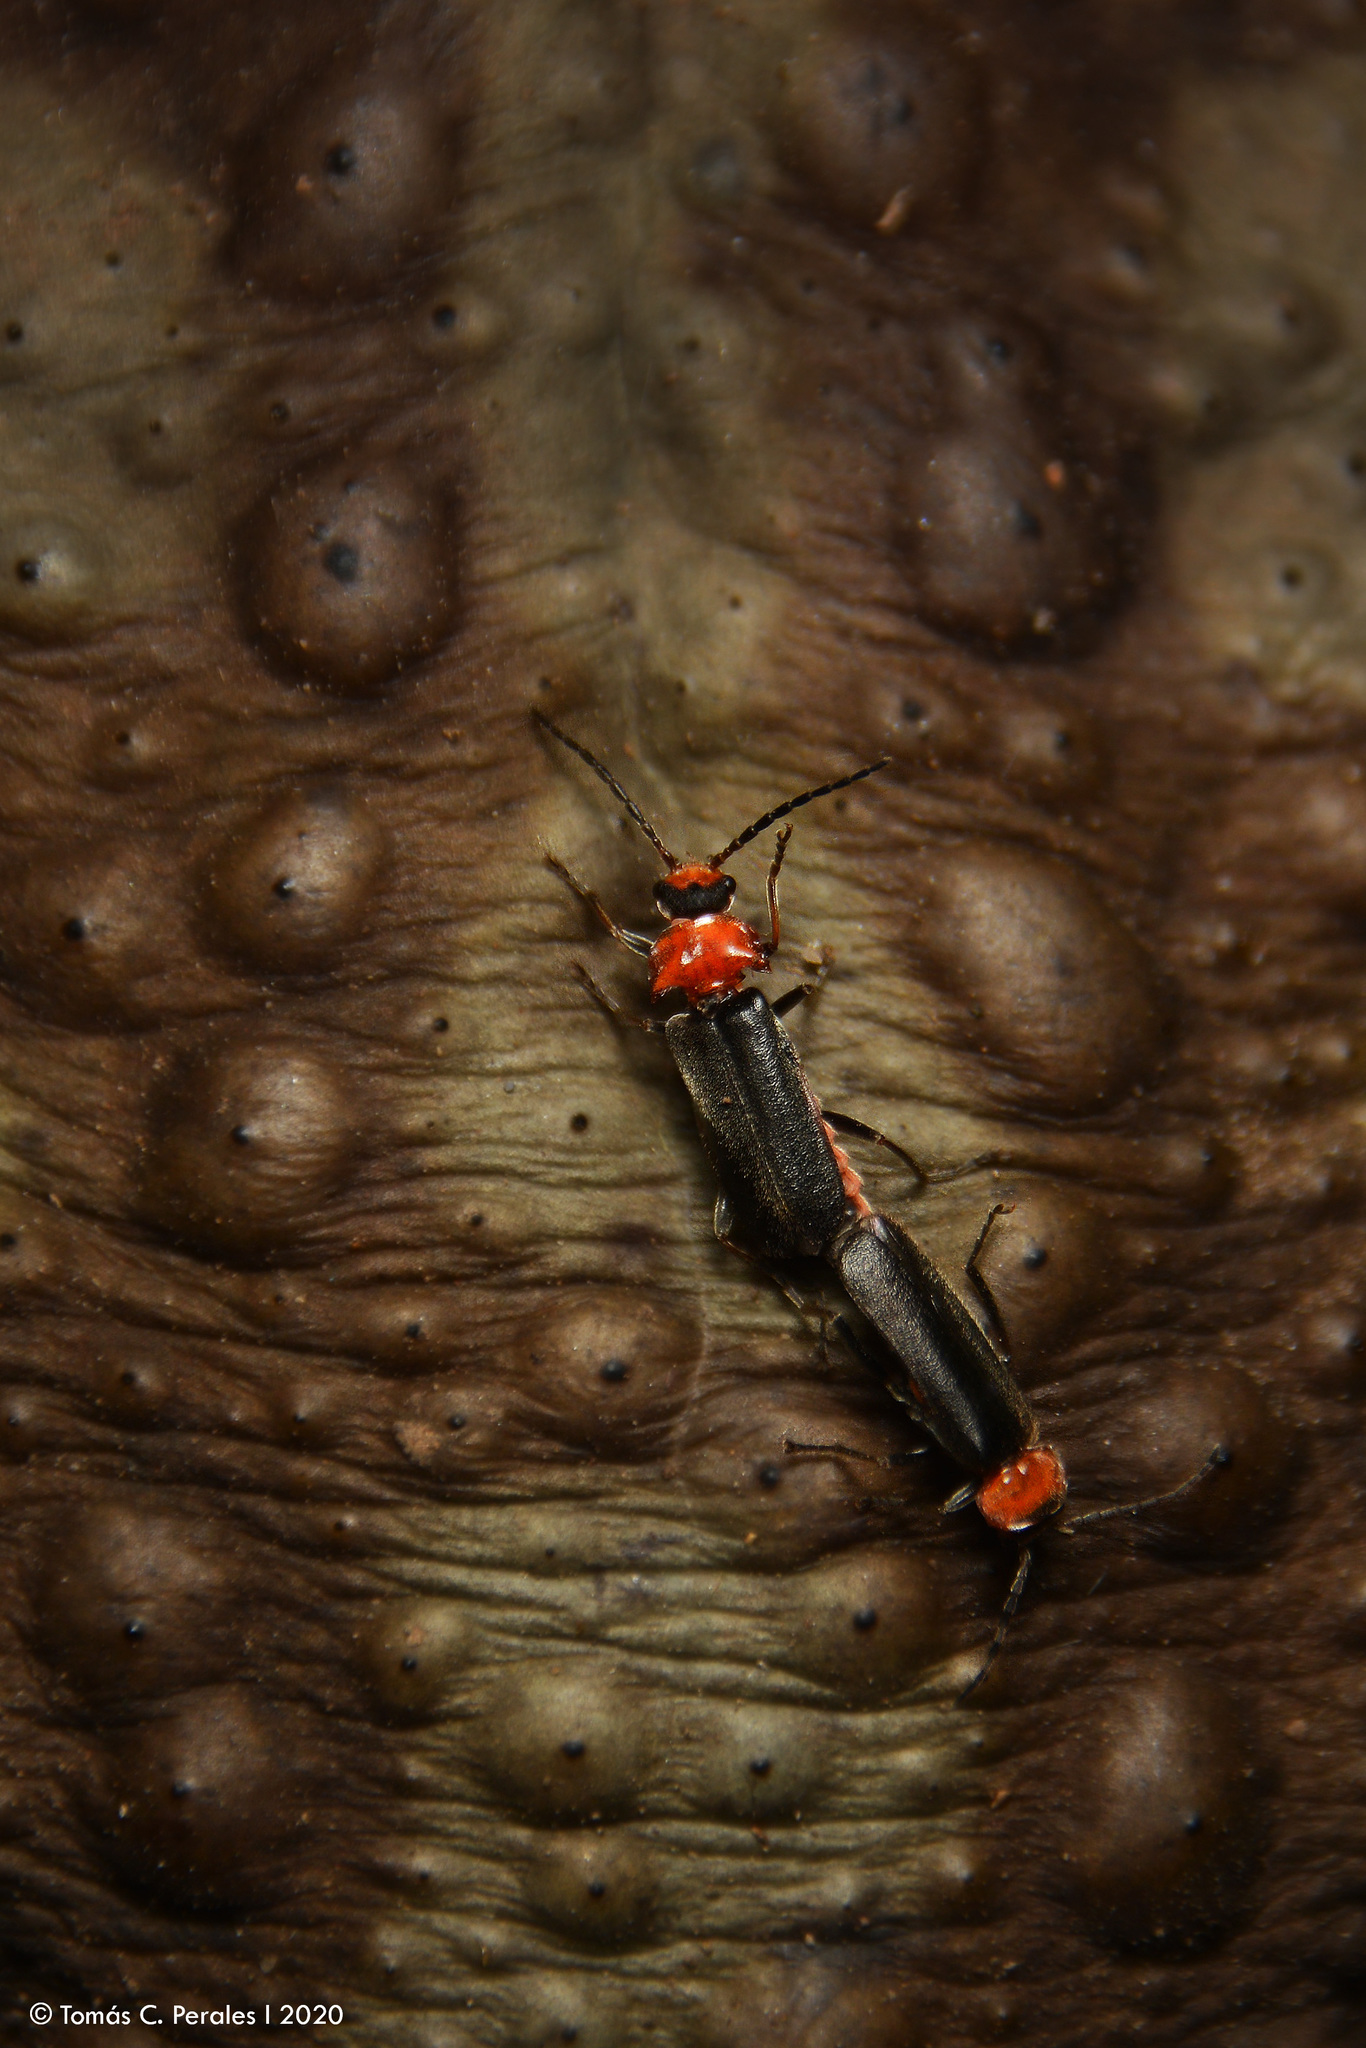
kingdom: Animalia
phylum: Arthropoda
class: Insecta
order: Coleoptera
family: Cantharidae
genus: Silis
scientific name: Silis
